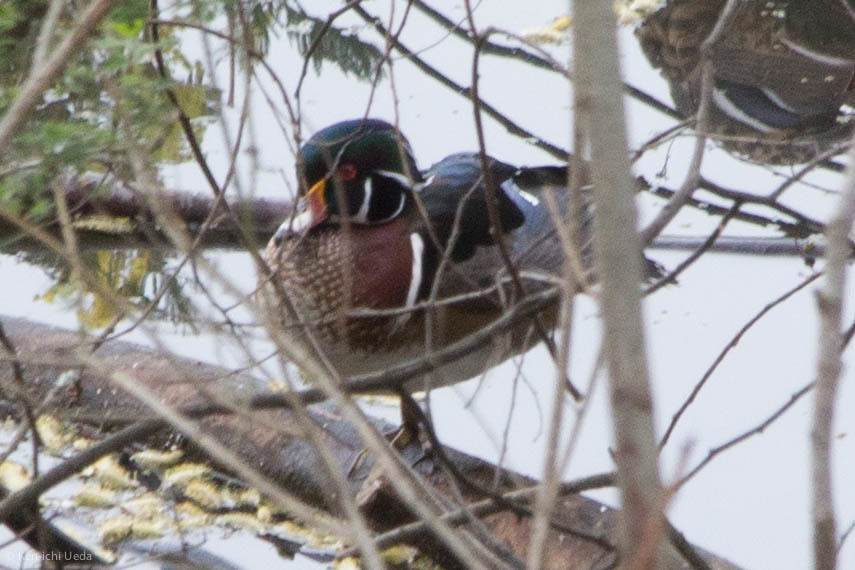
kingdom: Animalia
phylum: Chordata
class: Aves
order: Anseriformes
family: Anatidae
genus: Aix
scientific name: Aix sponsa
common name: Wood duck
